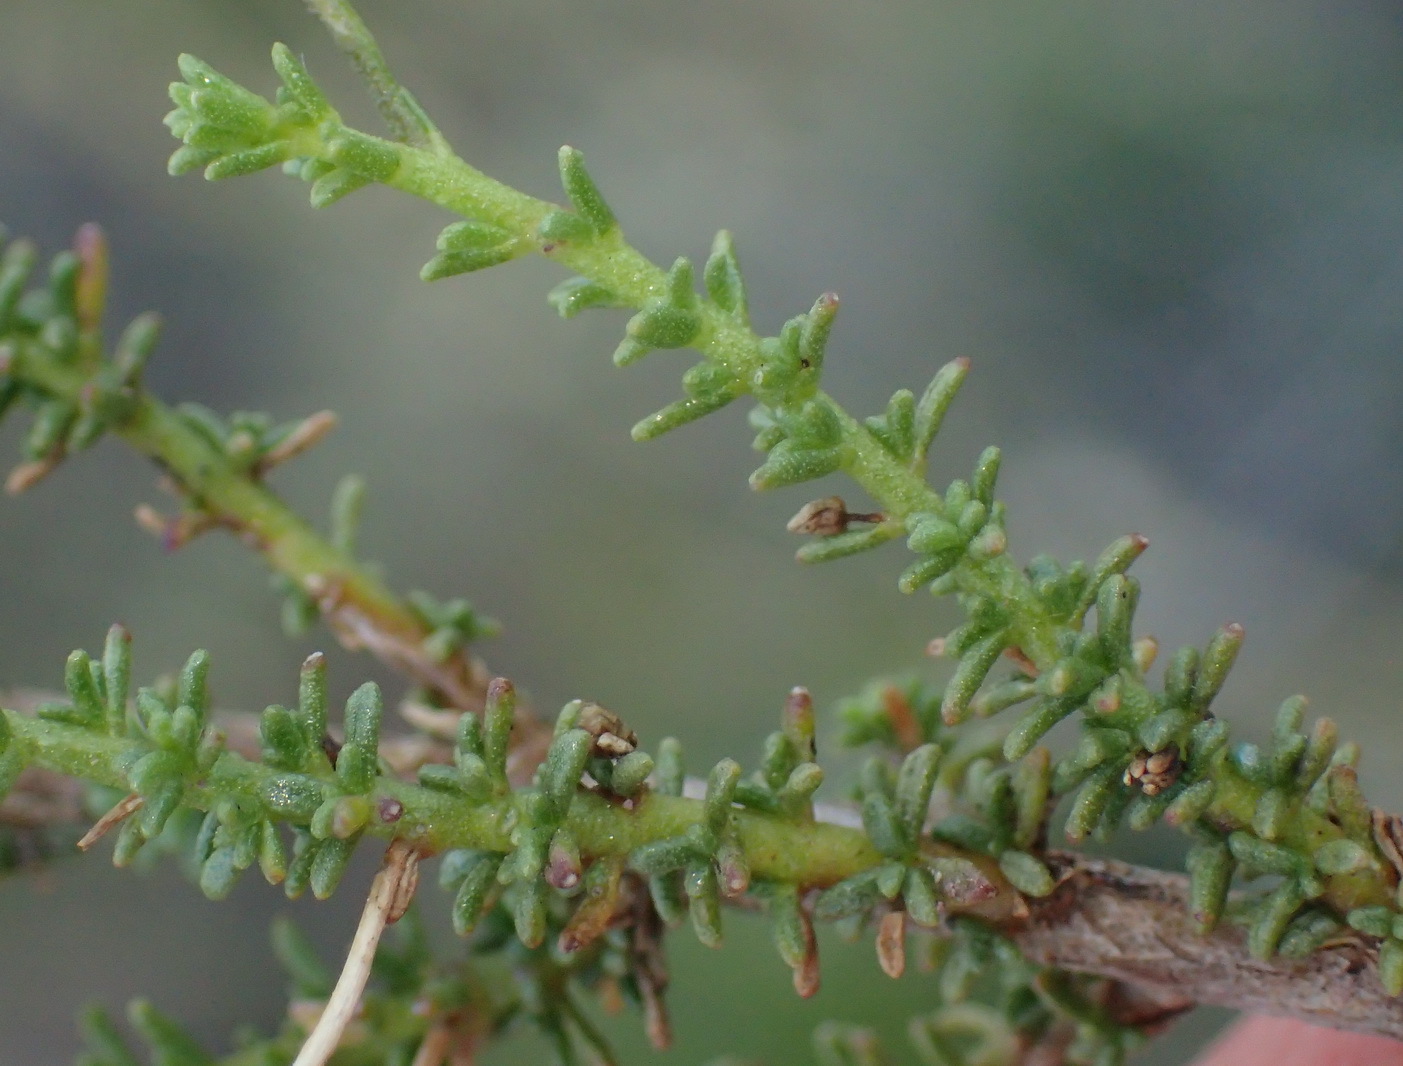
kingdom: Plantae
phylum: Tracheophyta
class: Magnoliopsida
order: Lamiales
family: Scrophulariaceae
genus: Jamesbrittenia
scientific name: Jamesbrittenia atropurpurea
